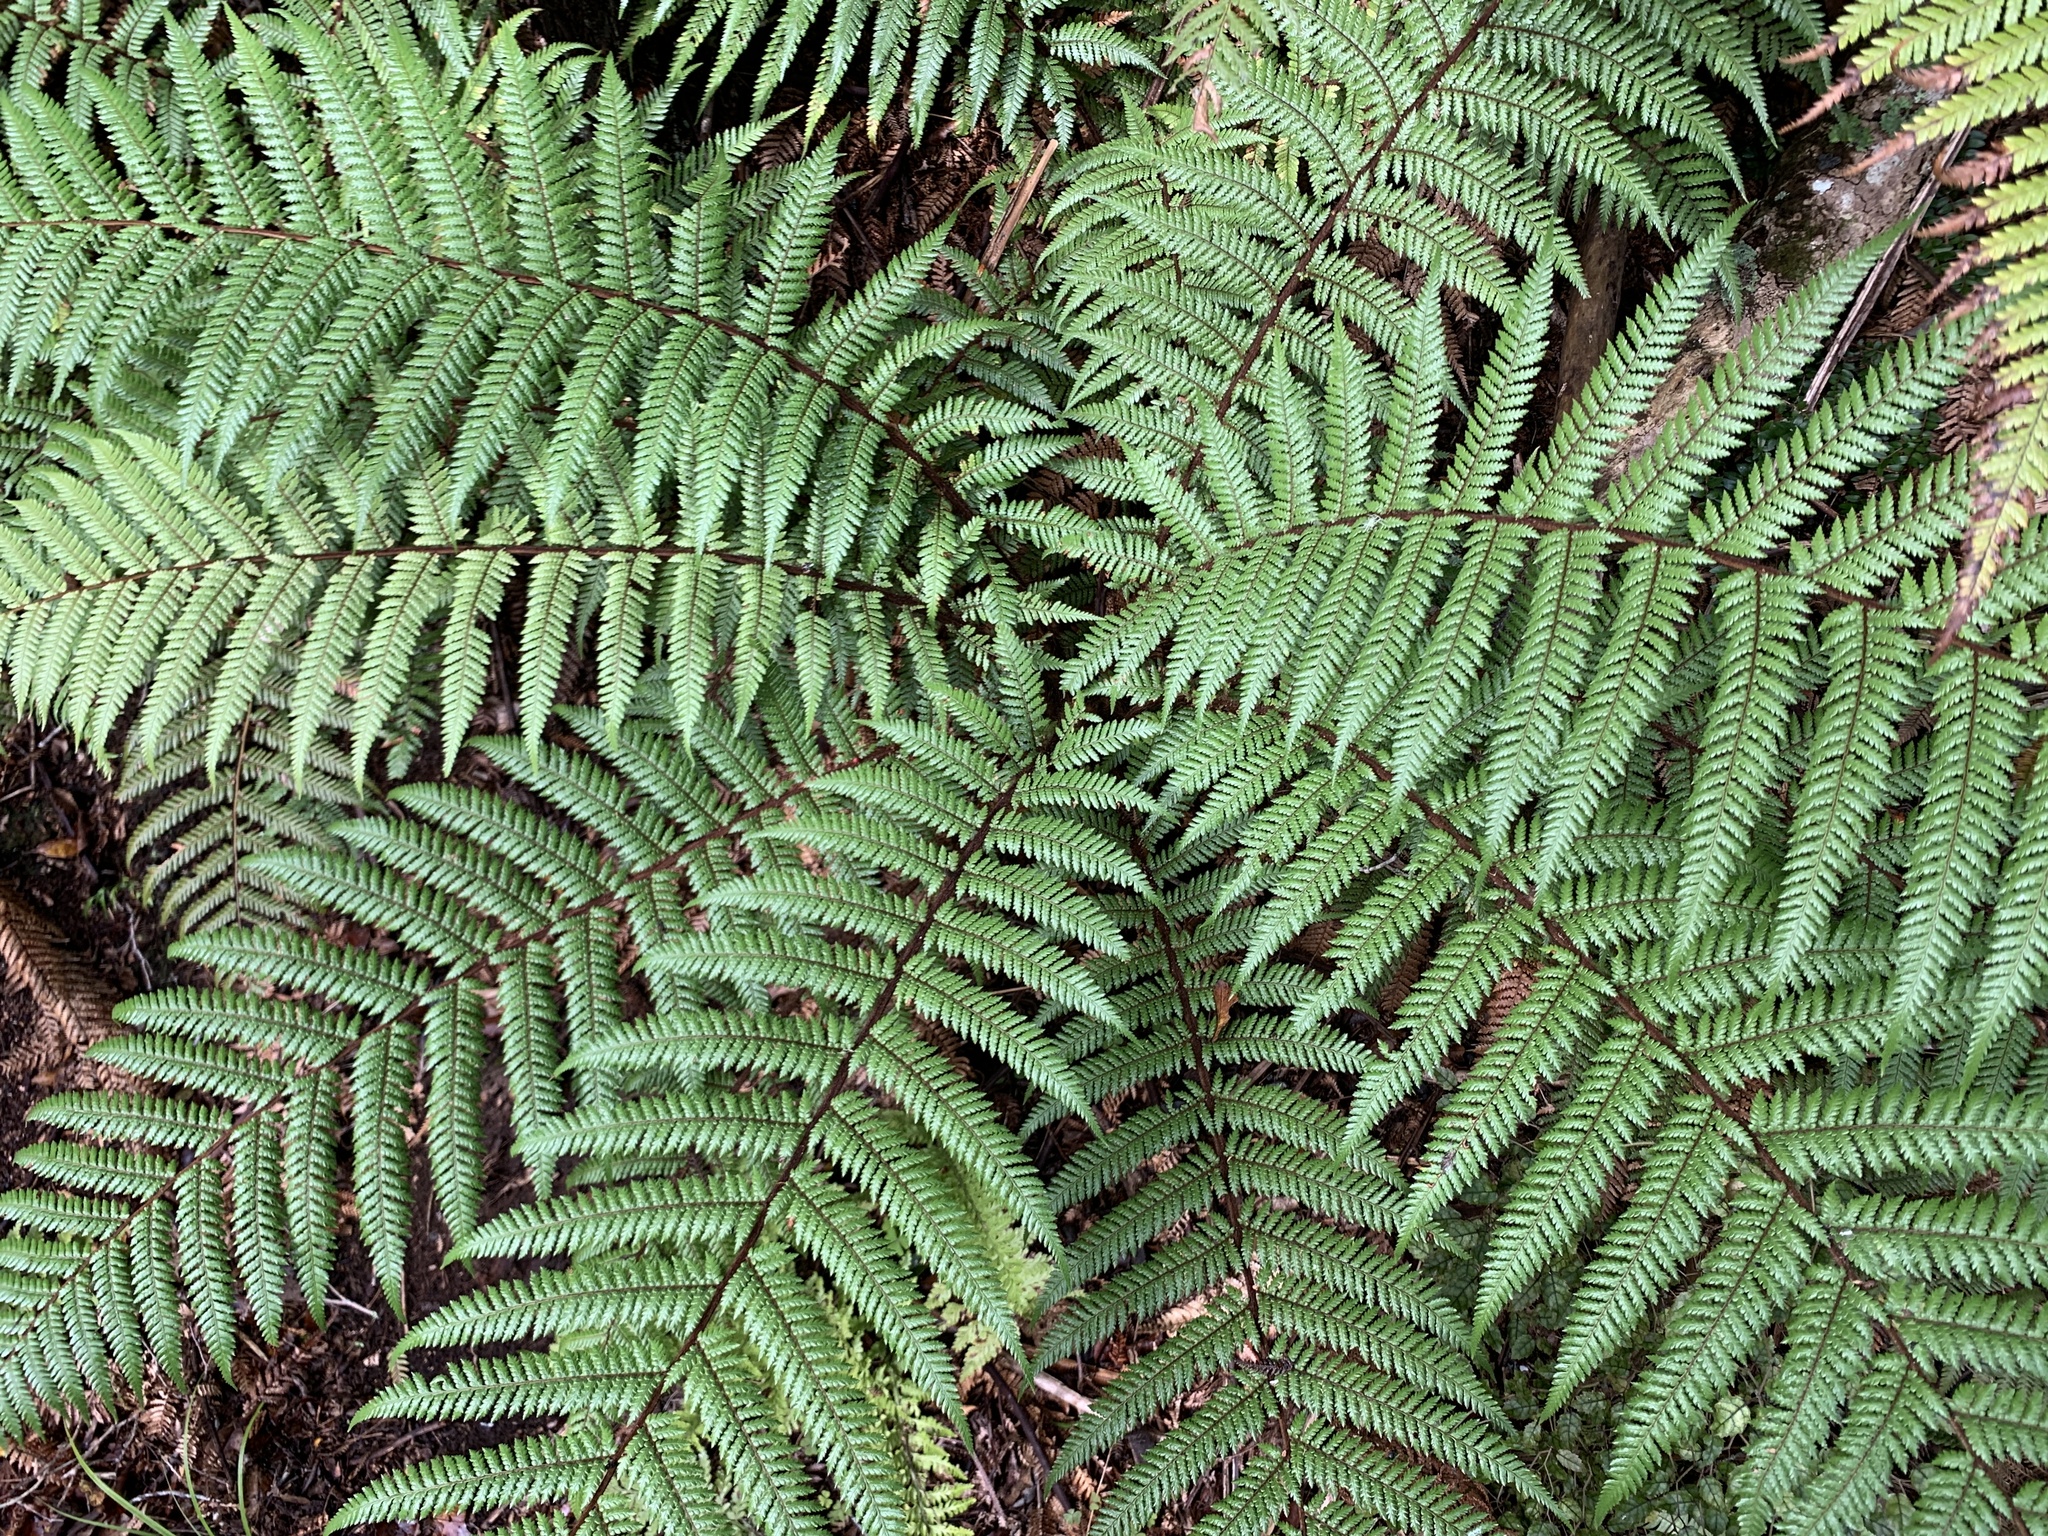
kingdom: Plantae
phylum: Tracheophyta
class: Polypodiopsida
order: Cyatheales
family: Dicksoniaceae
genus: Dicksonia
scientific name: Dicksonia squarrosa
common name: Hard treefern
